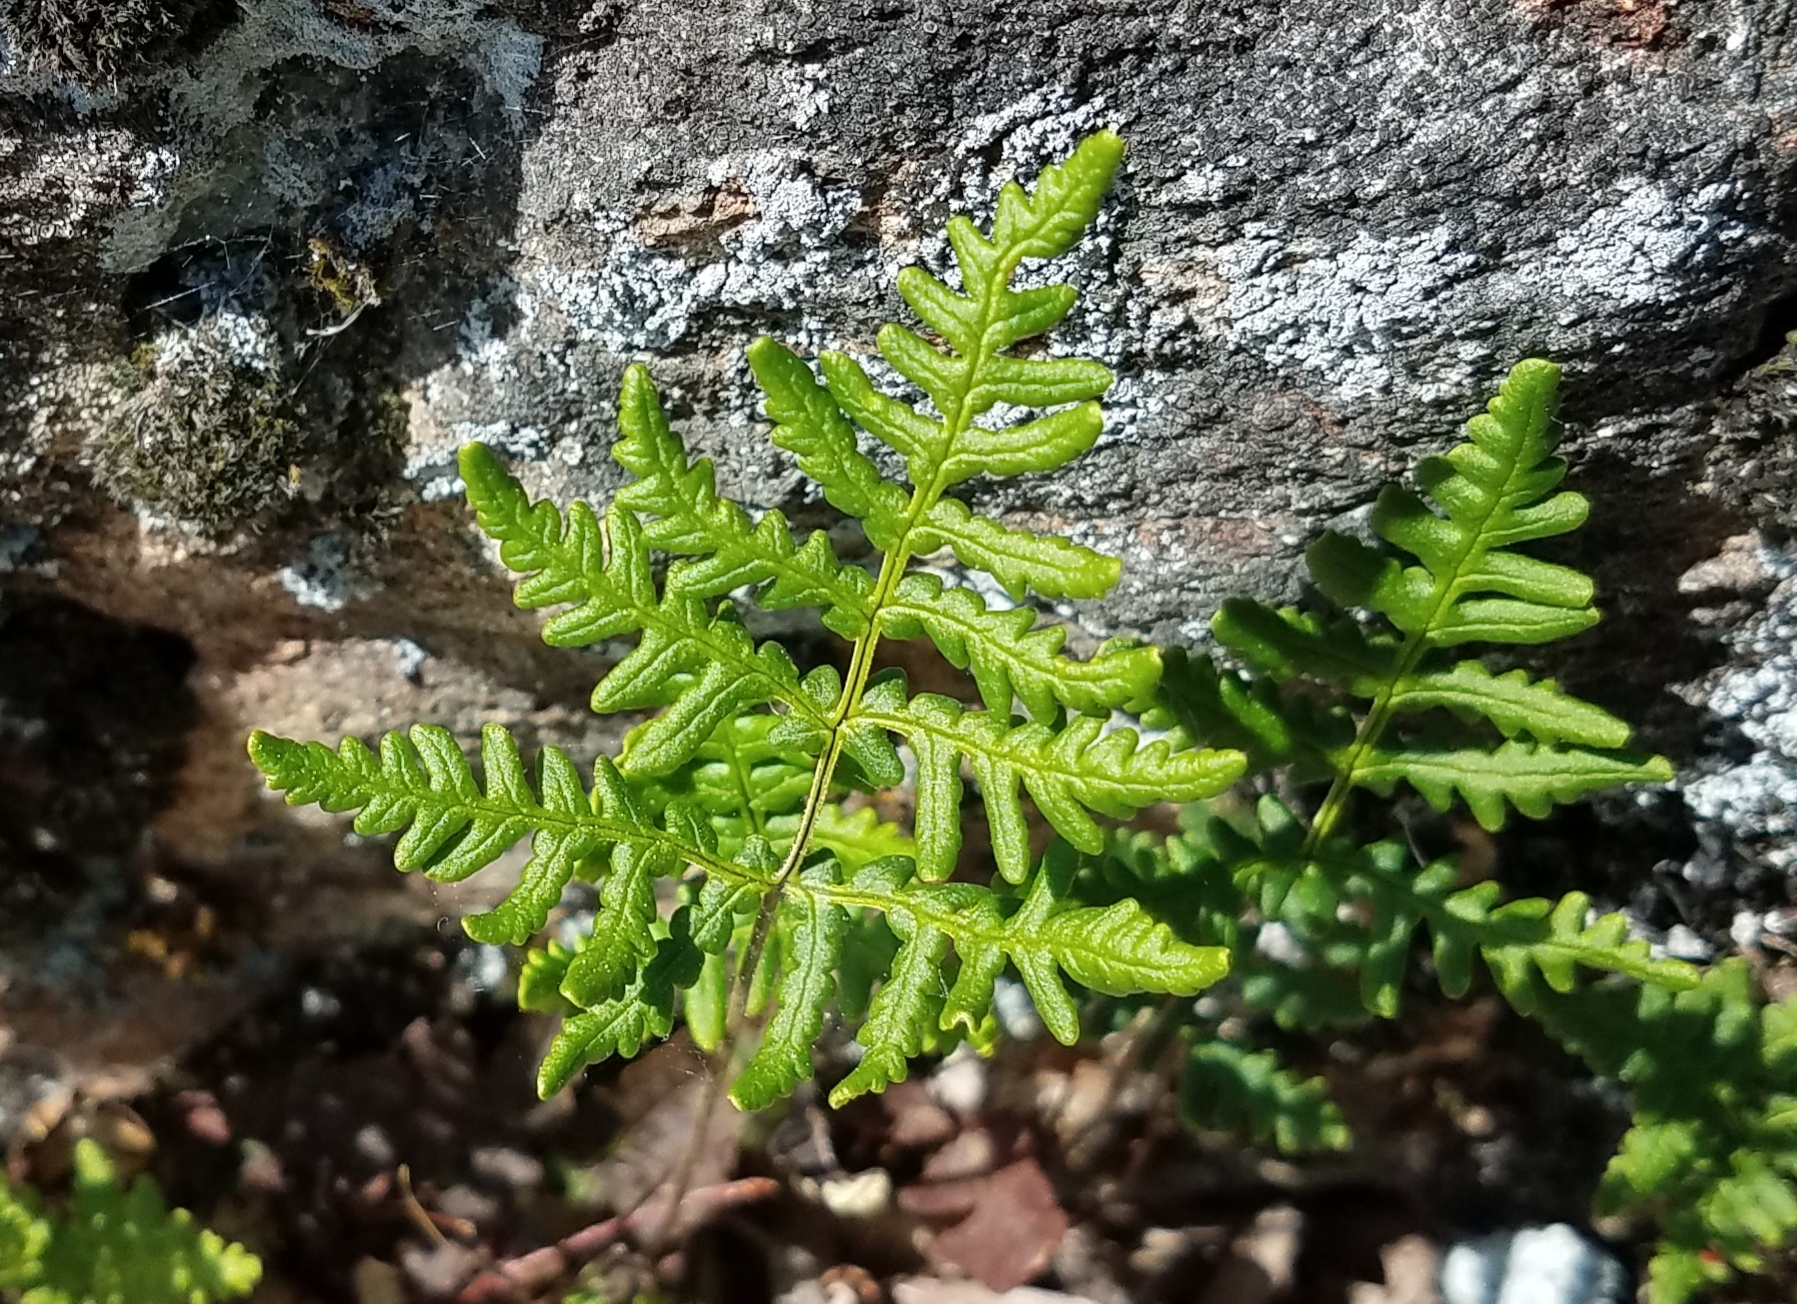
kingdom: Plantae
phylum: Tracheophyta
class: Polypodiopsida
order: Polypodiales
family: Pteridaceae
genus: Pentagramma
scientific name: Pentagramma triangularis
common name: Gold fern
